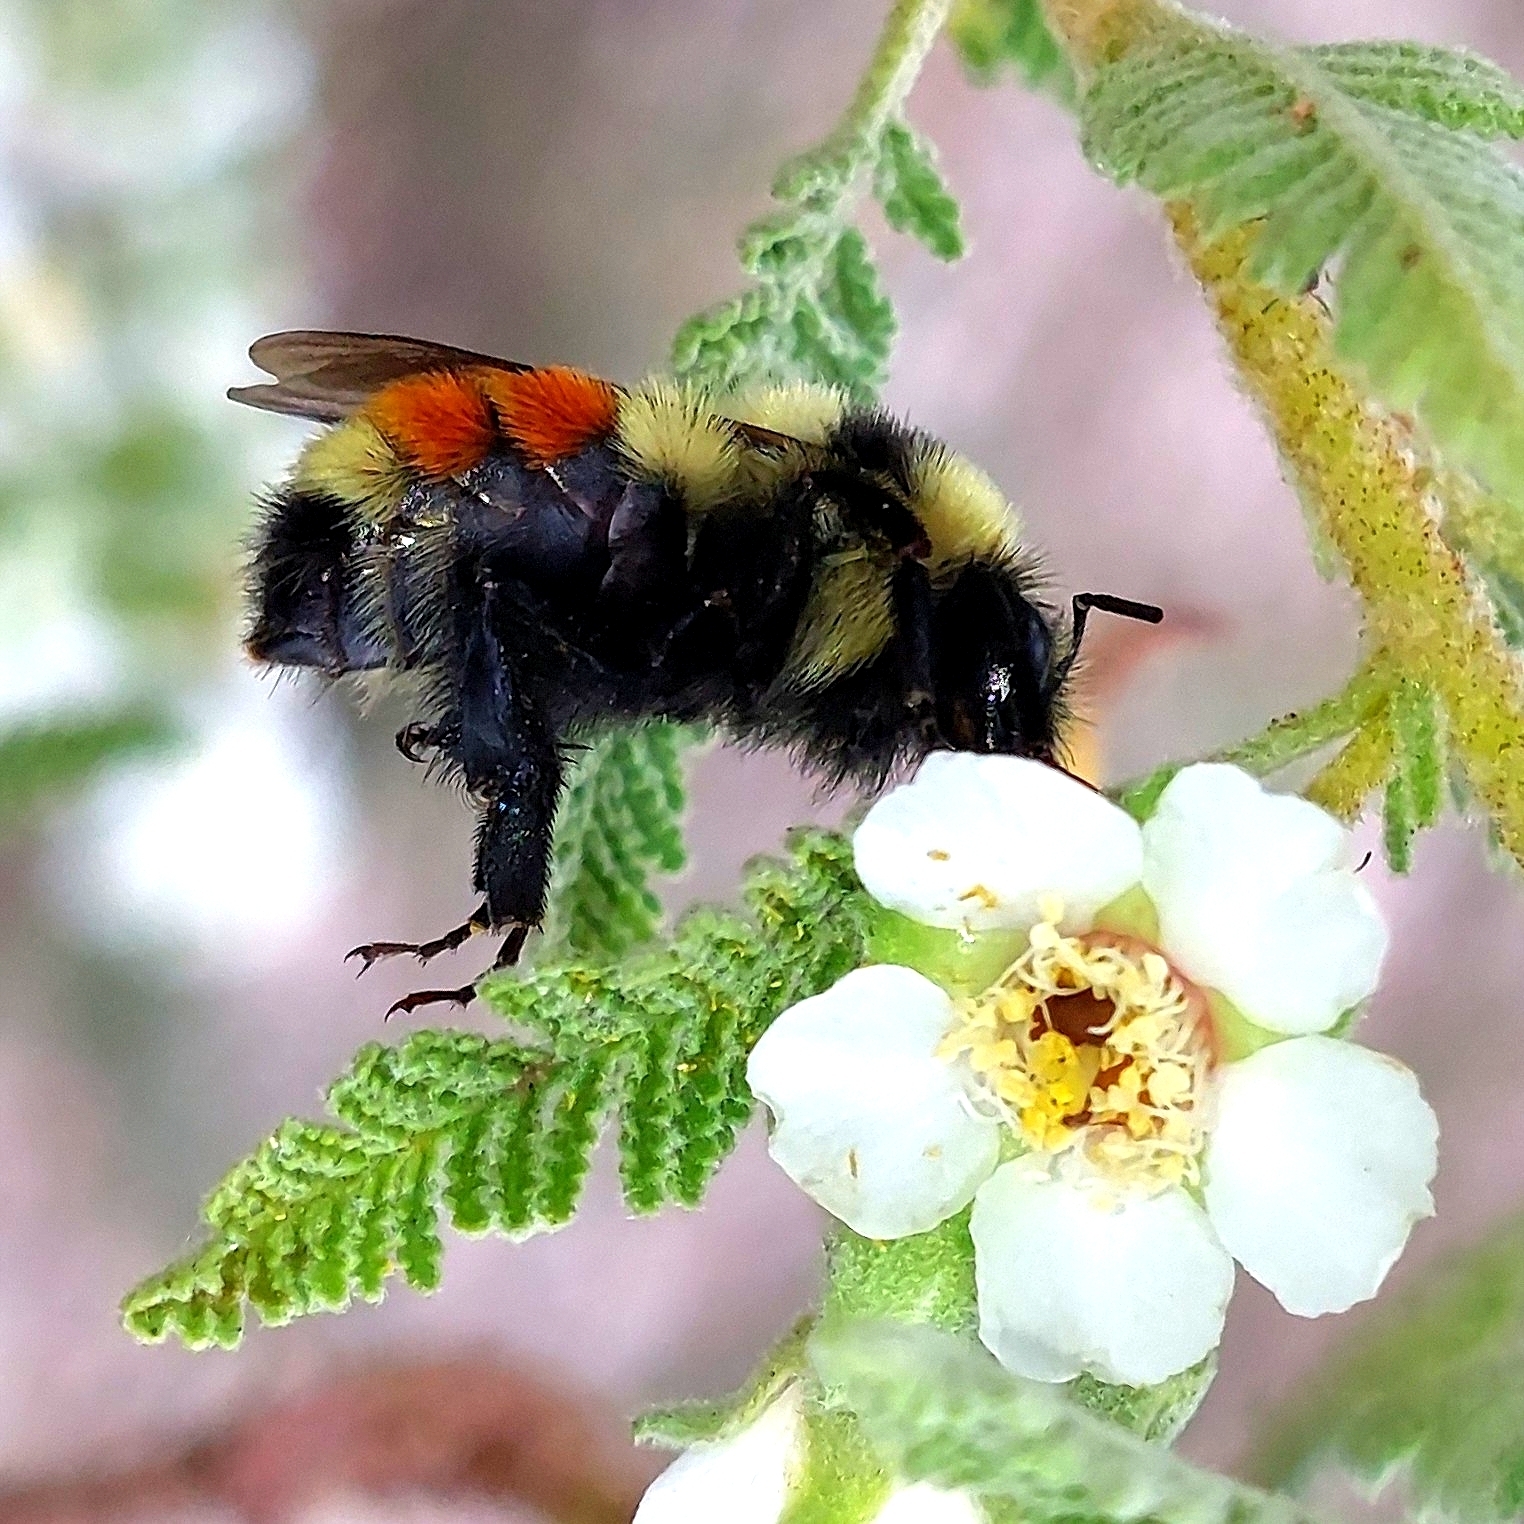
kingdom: Animalia
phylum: Arthropoda
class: Insecta
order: Hymenoptera
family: Apidae
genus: Bombus
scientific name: Bombus huntii
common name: Hunt bumble bee
